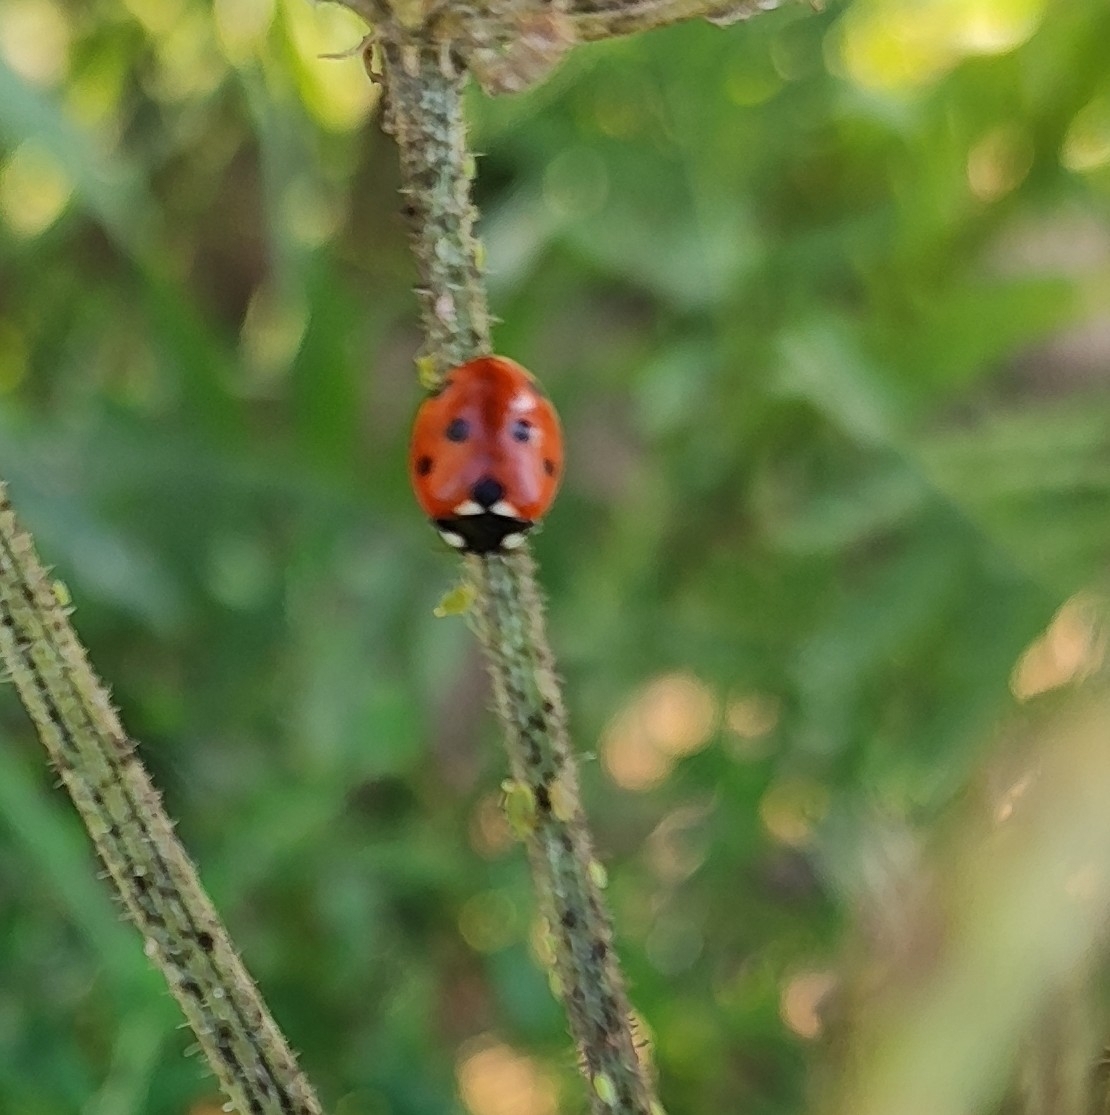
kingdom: Animalia
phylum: Arthropoda
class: Insecta
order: Coleoptera
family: Coccinellidae
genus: Coccinella
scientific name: Coccinella septempunctata
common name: Sevenspotted lady beetle
